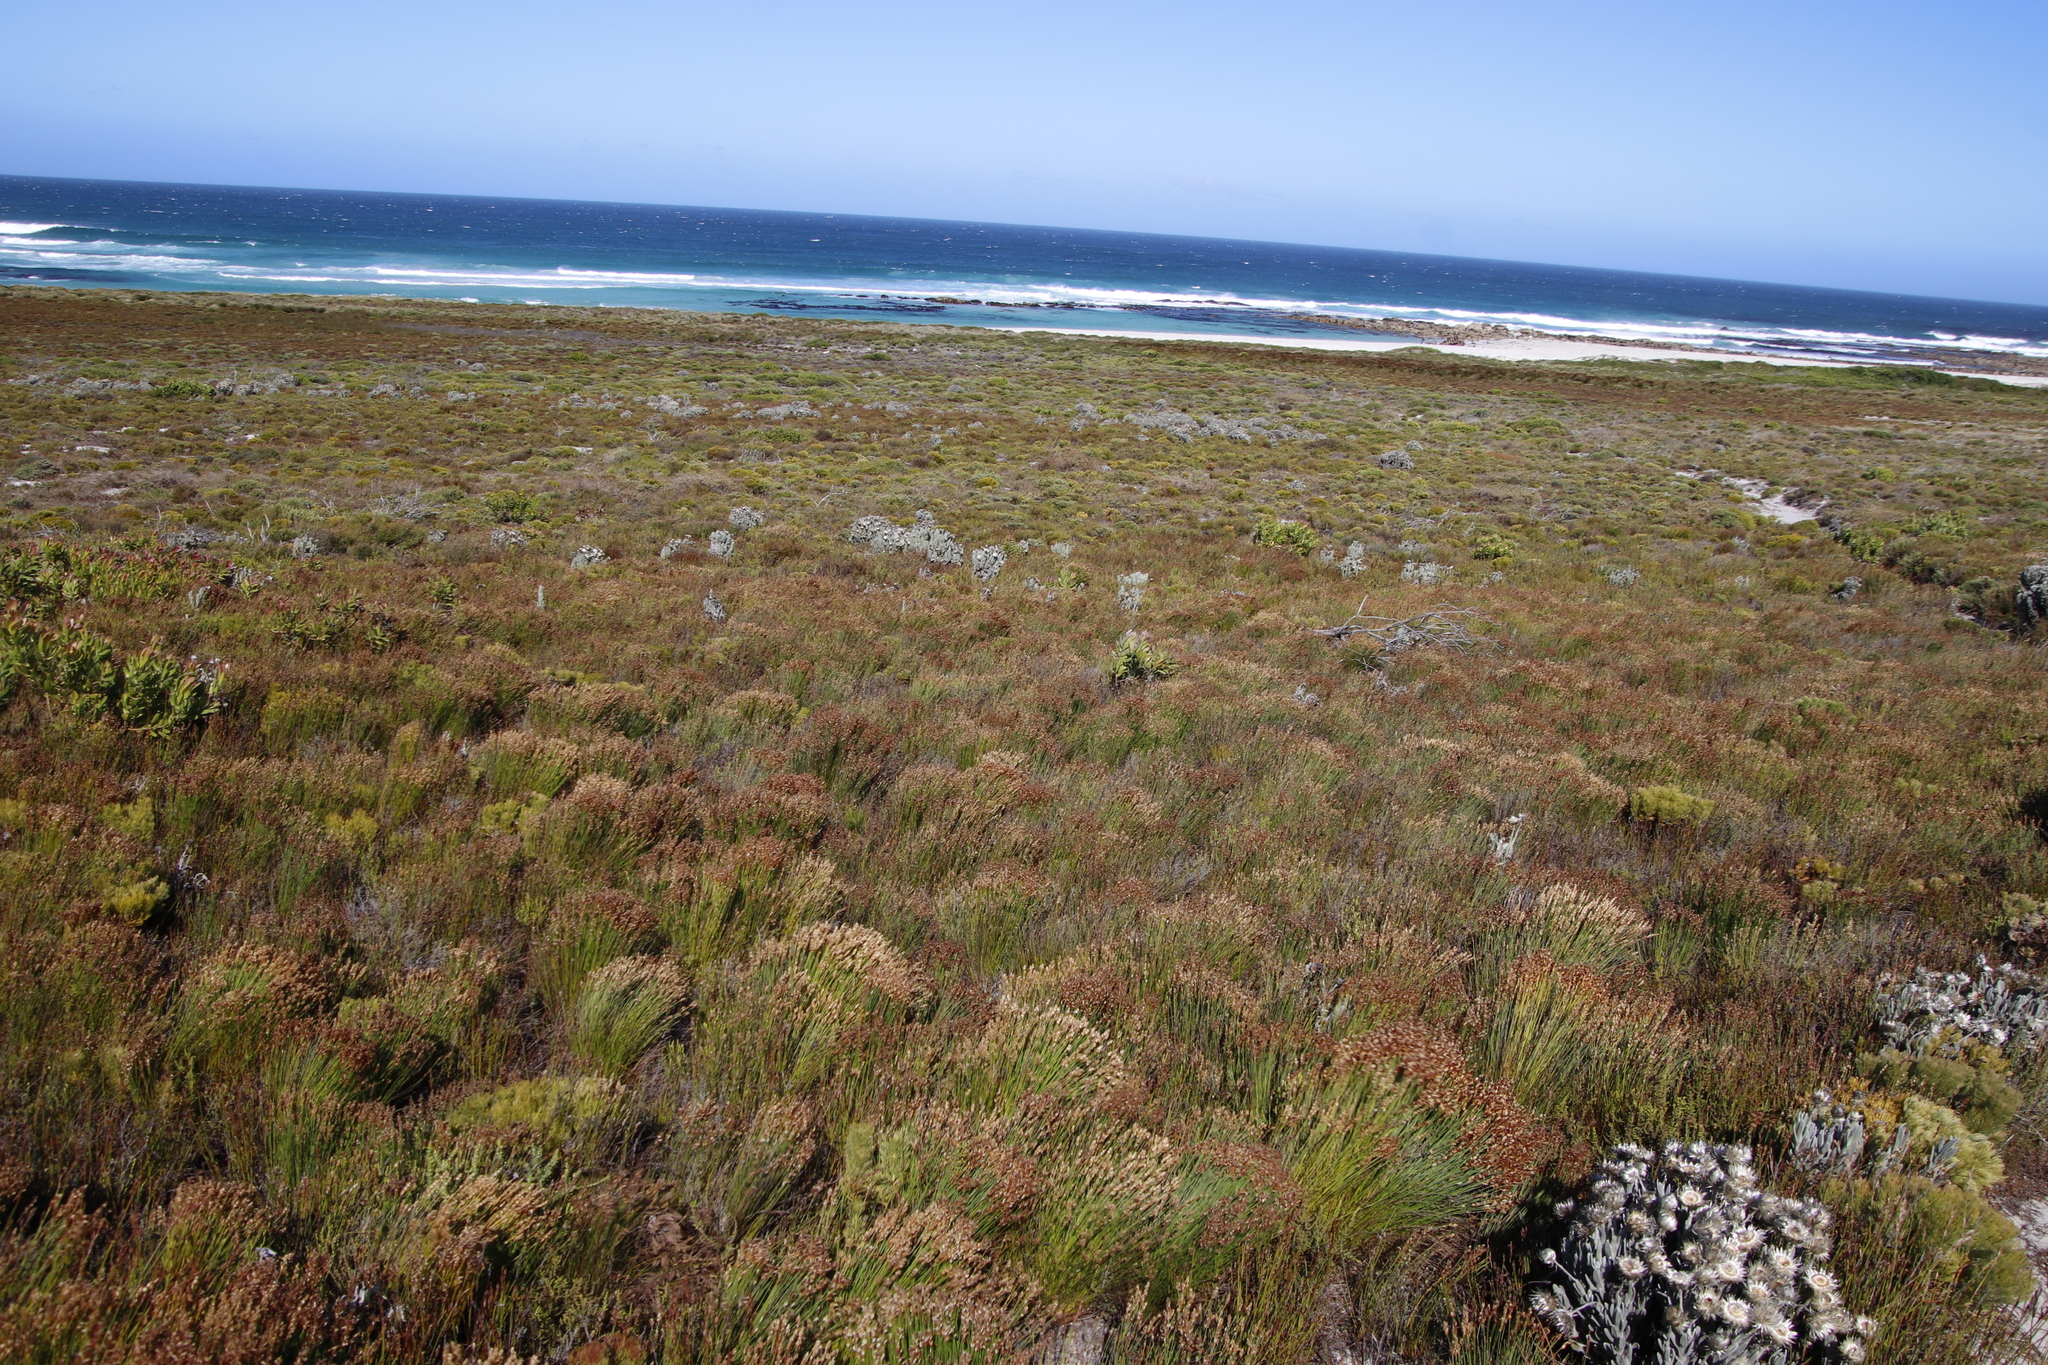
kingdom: Plantae
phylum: Tracheophyta
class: Liliopsida
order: Poales
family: Restionaceae
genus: Elegia
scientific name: Elegia filacea
